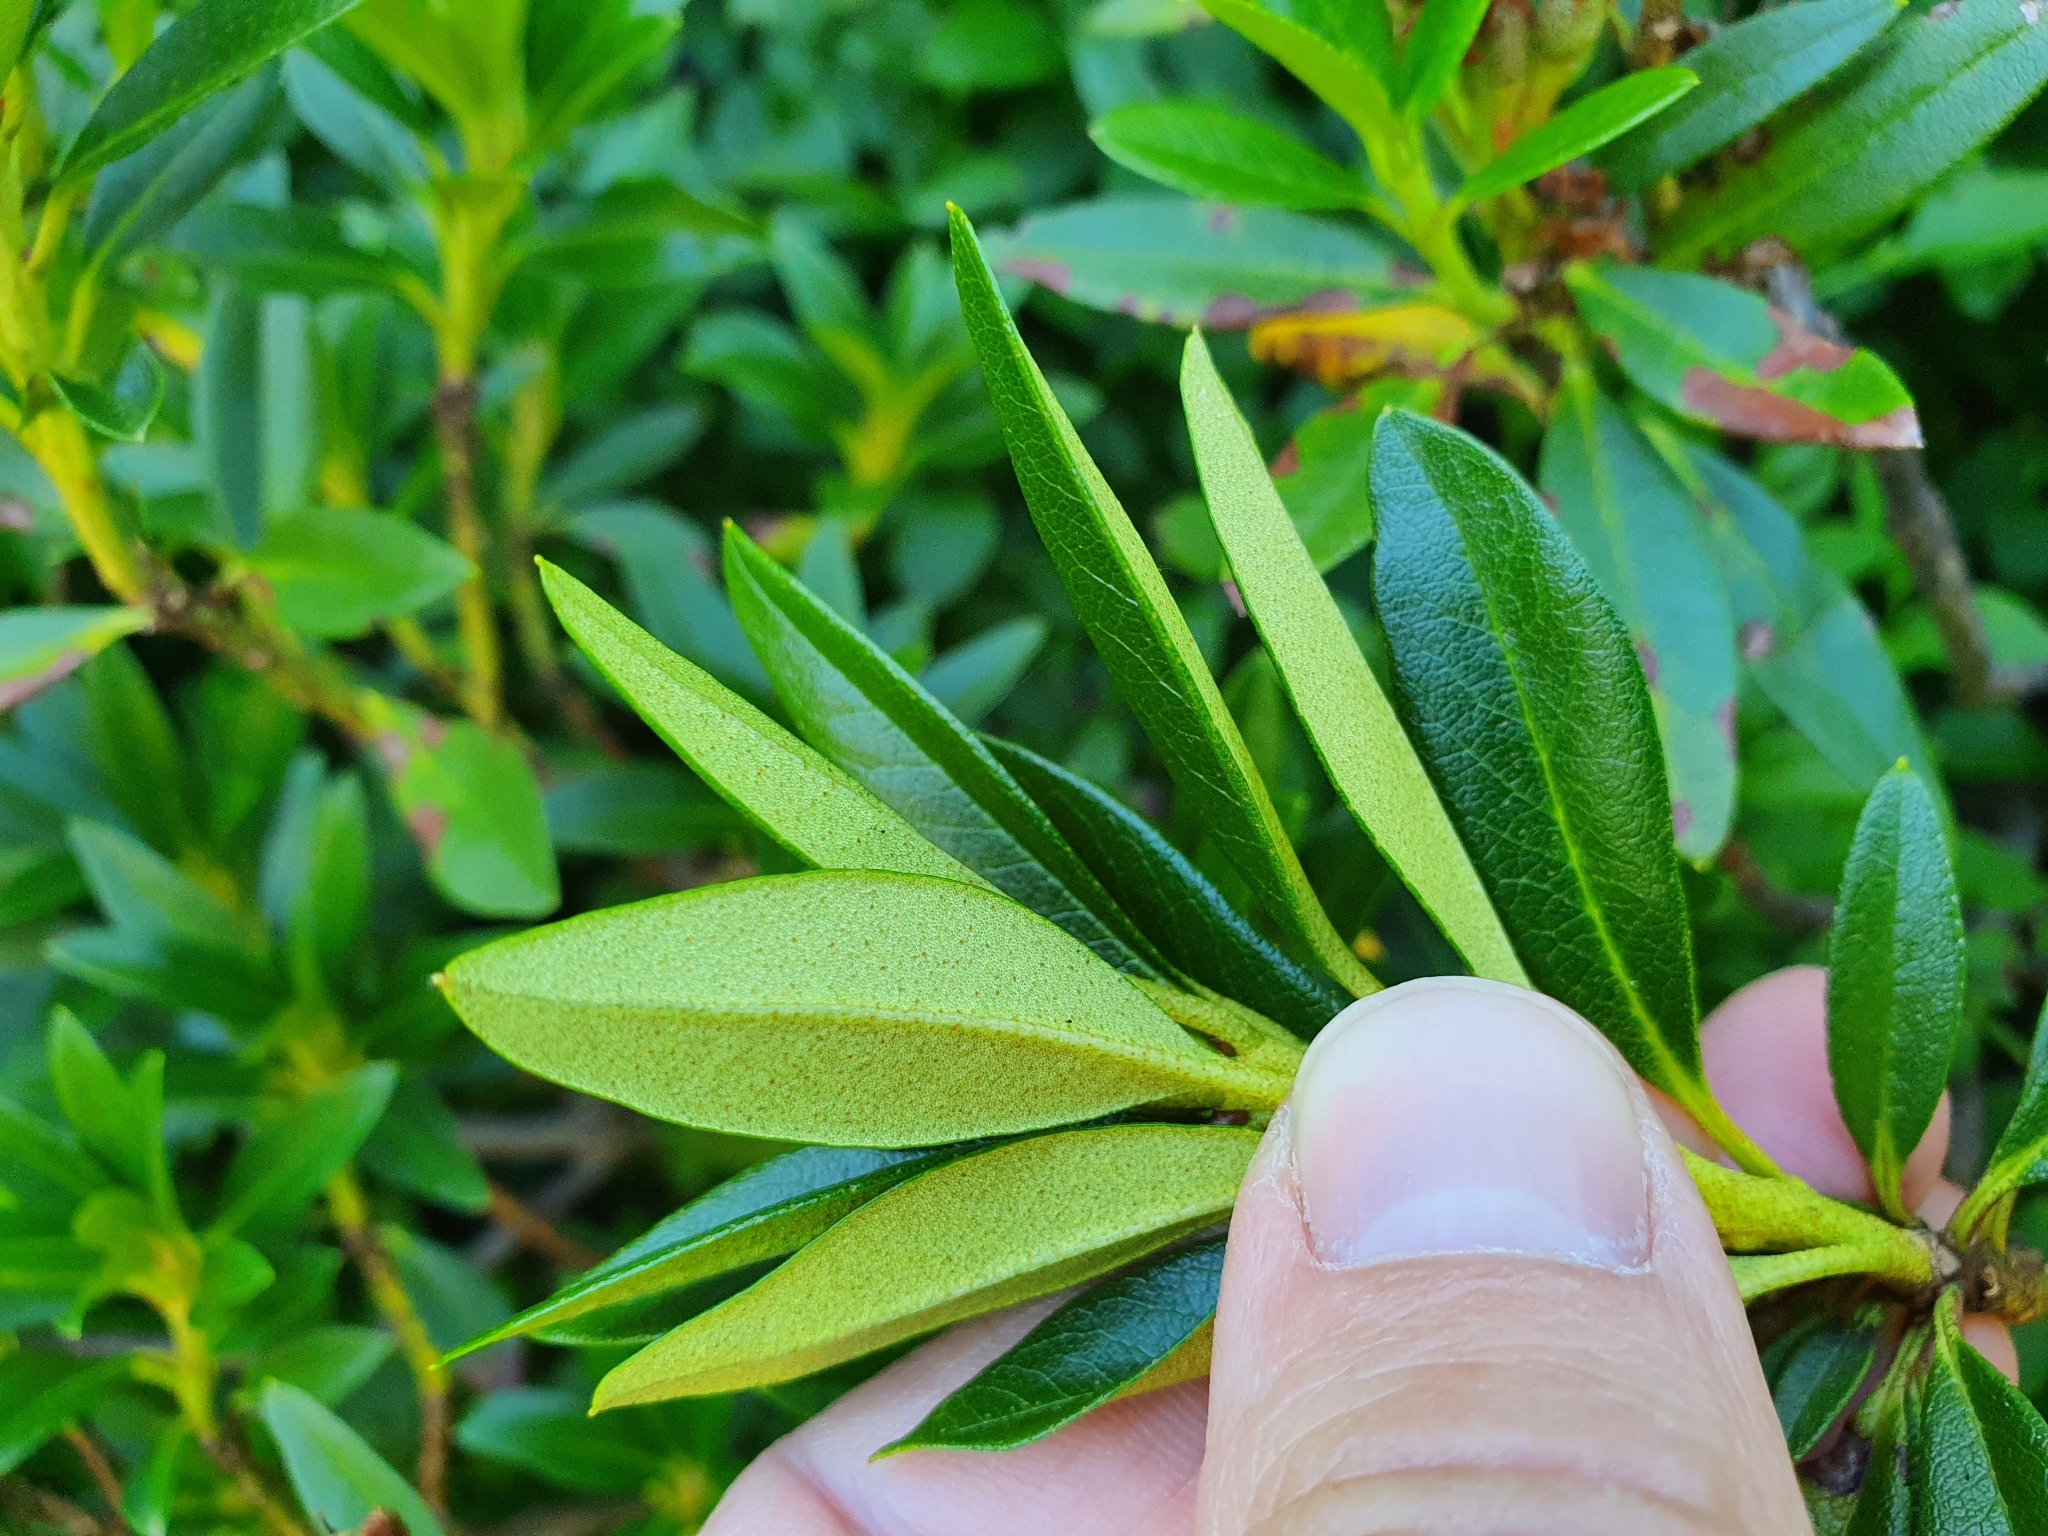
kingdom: Plantae
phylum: Tracheophyta
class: Magnoliopsida
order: Ericales
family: Ericaceae
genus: Rhododendron
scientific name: Rhododendron ferrugineum
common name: Alpenrose
